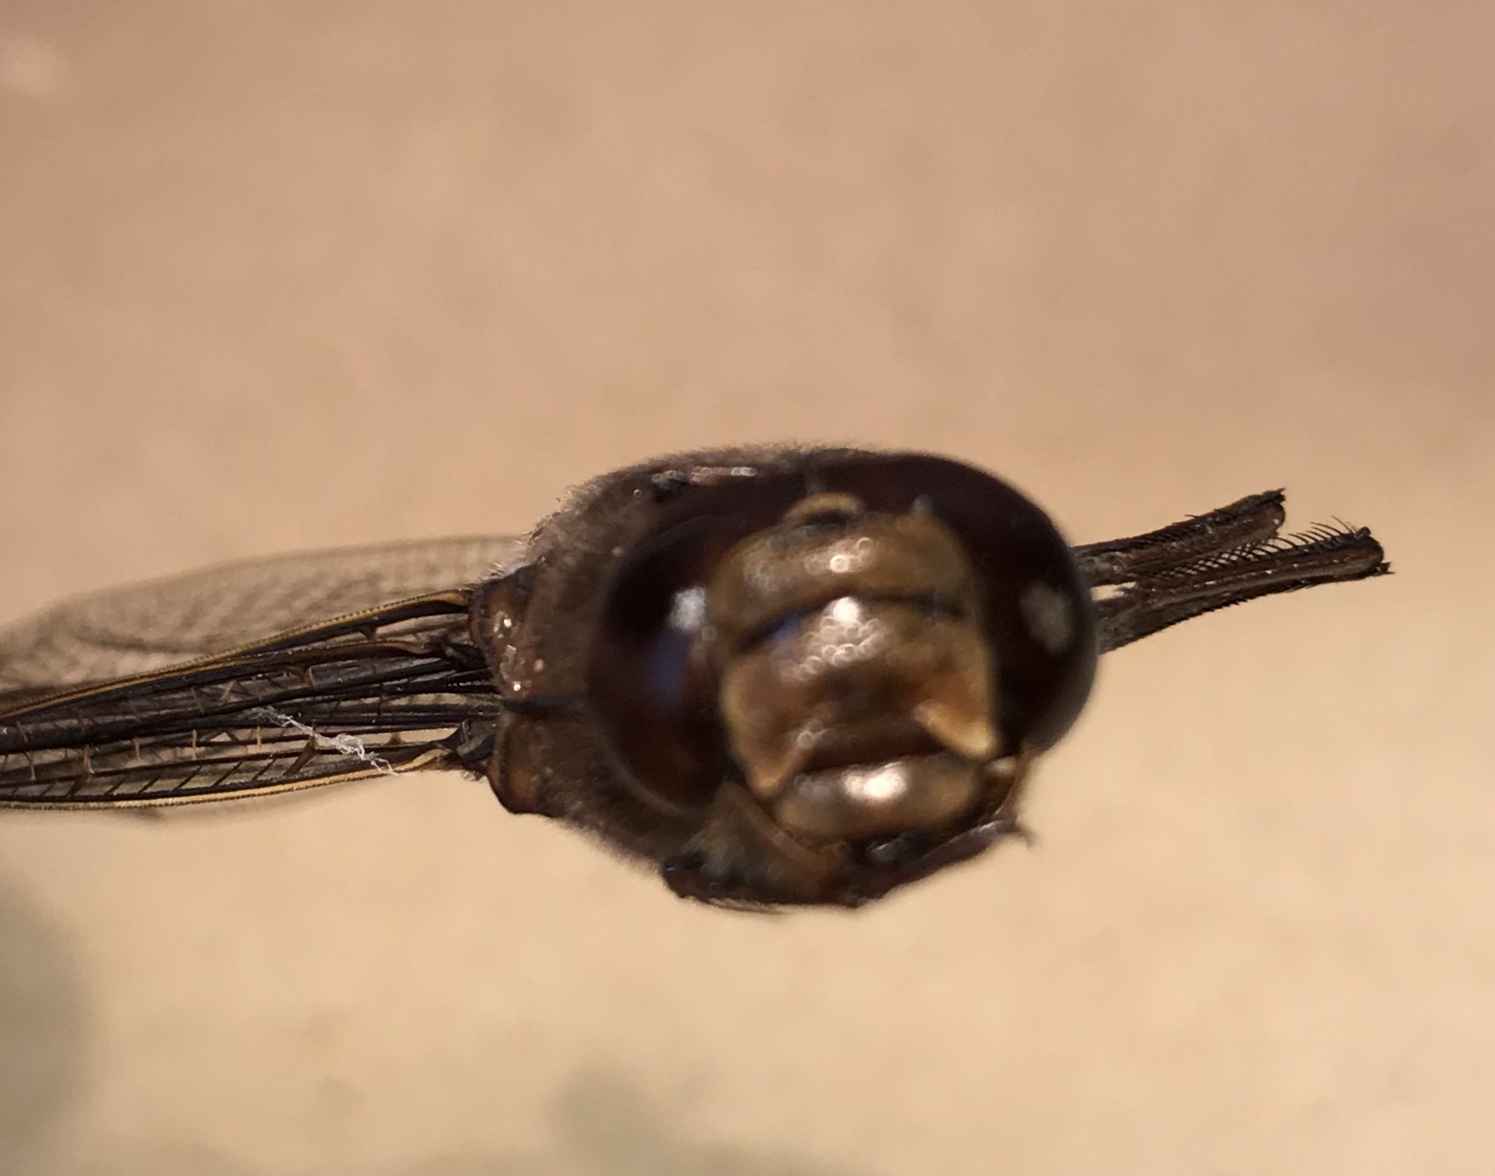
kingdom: Animalia
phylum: Arthropoda
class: Insecta
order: Odonata
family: Aeshnidae
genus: Aeshna
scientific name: Aeshna eremita
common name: Lake darner
